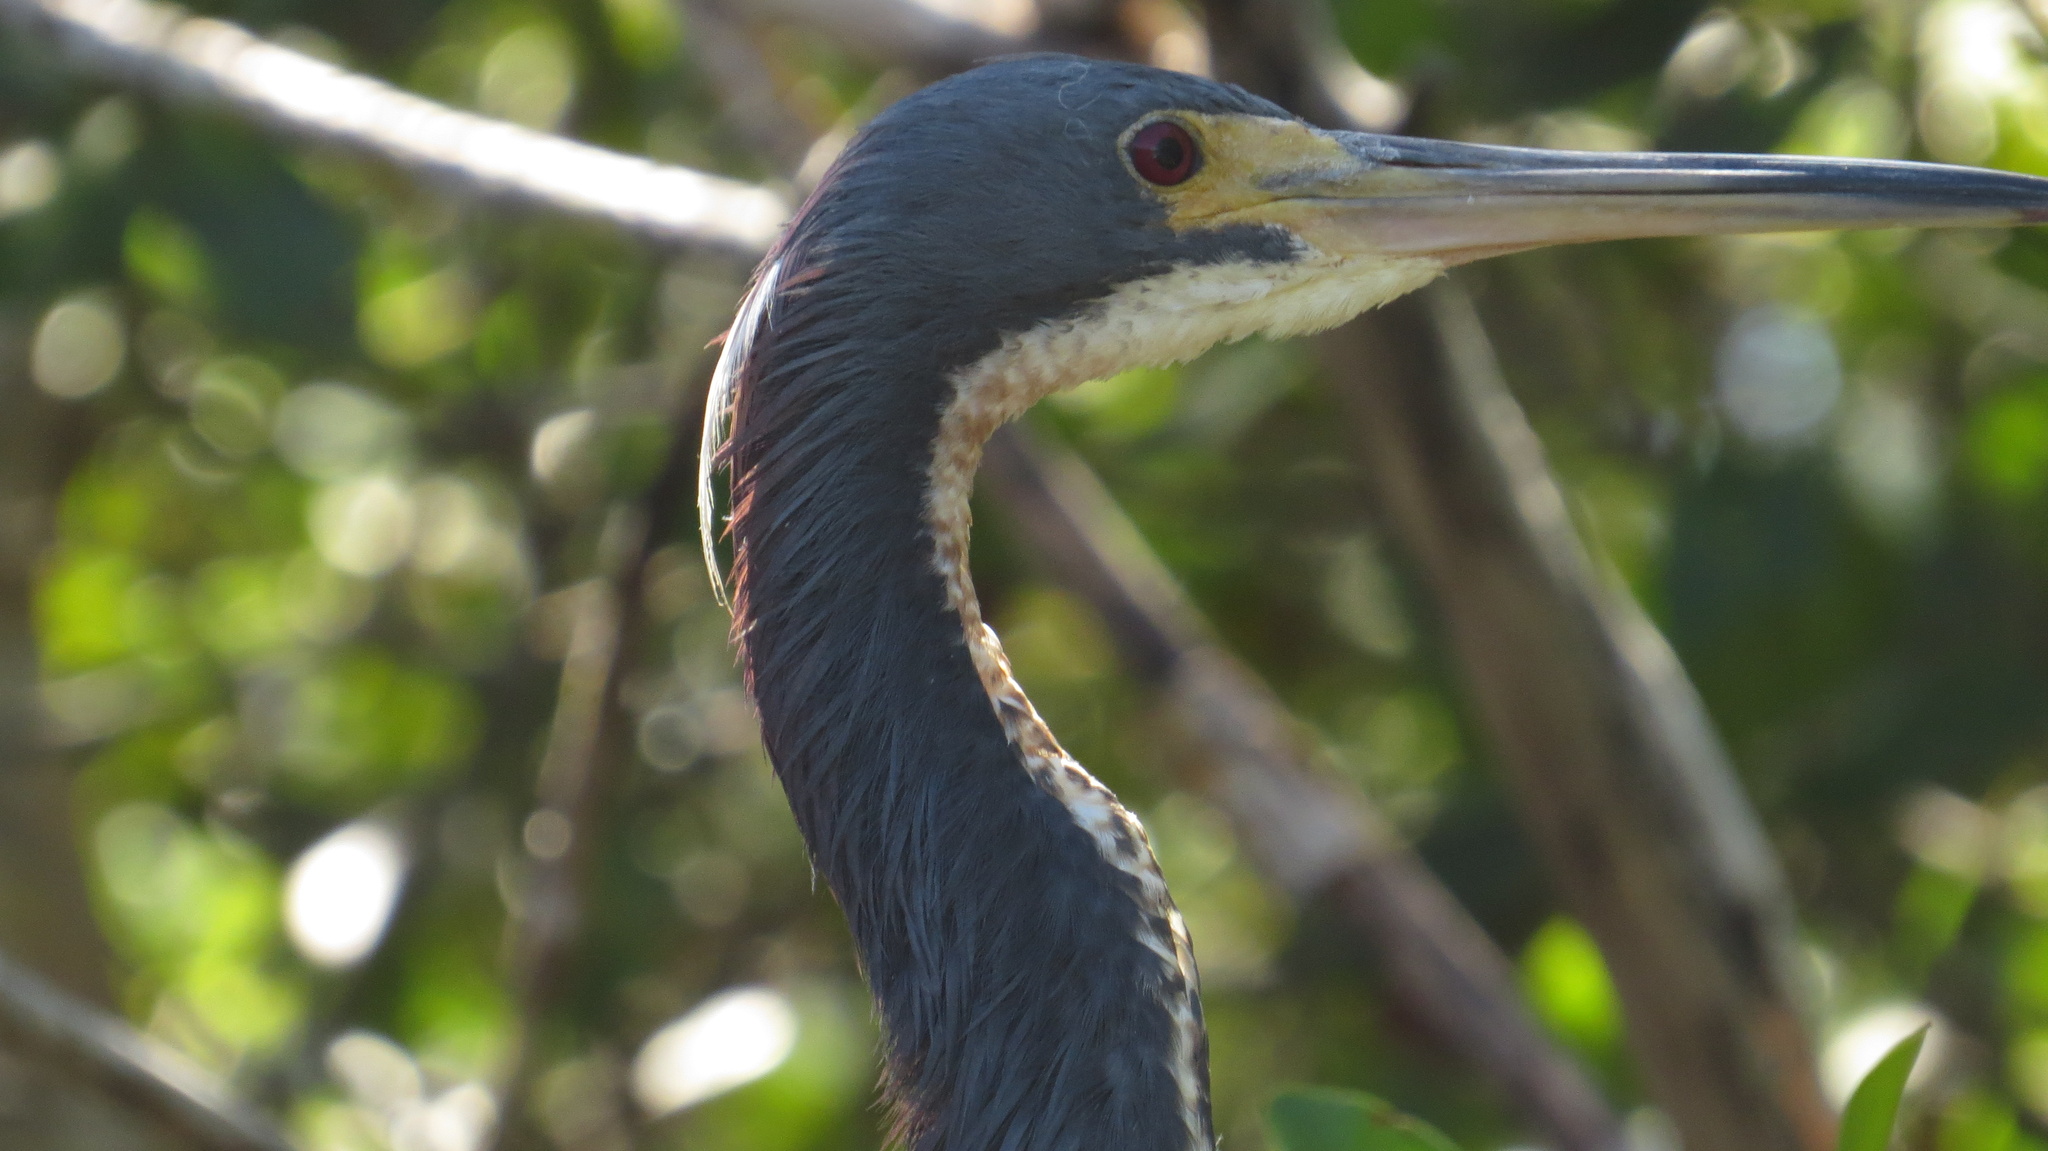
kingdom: Animalia
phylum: Chordata
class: Aves
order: Pelecaniformes
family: Ardeidae
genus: Egretta
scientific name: Egretta tricolor
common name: Tricolored heron
